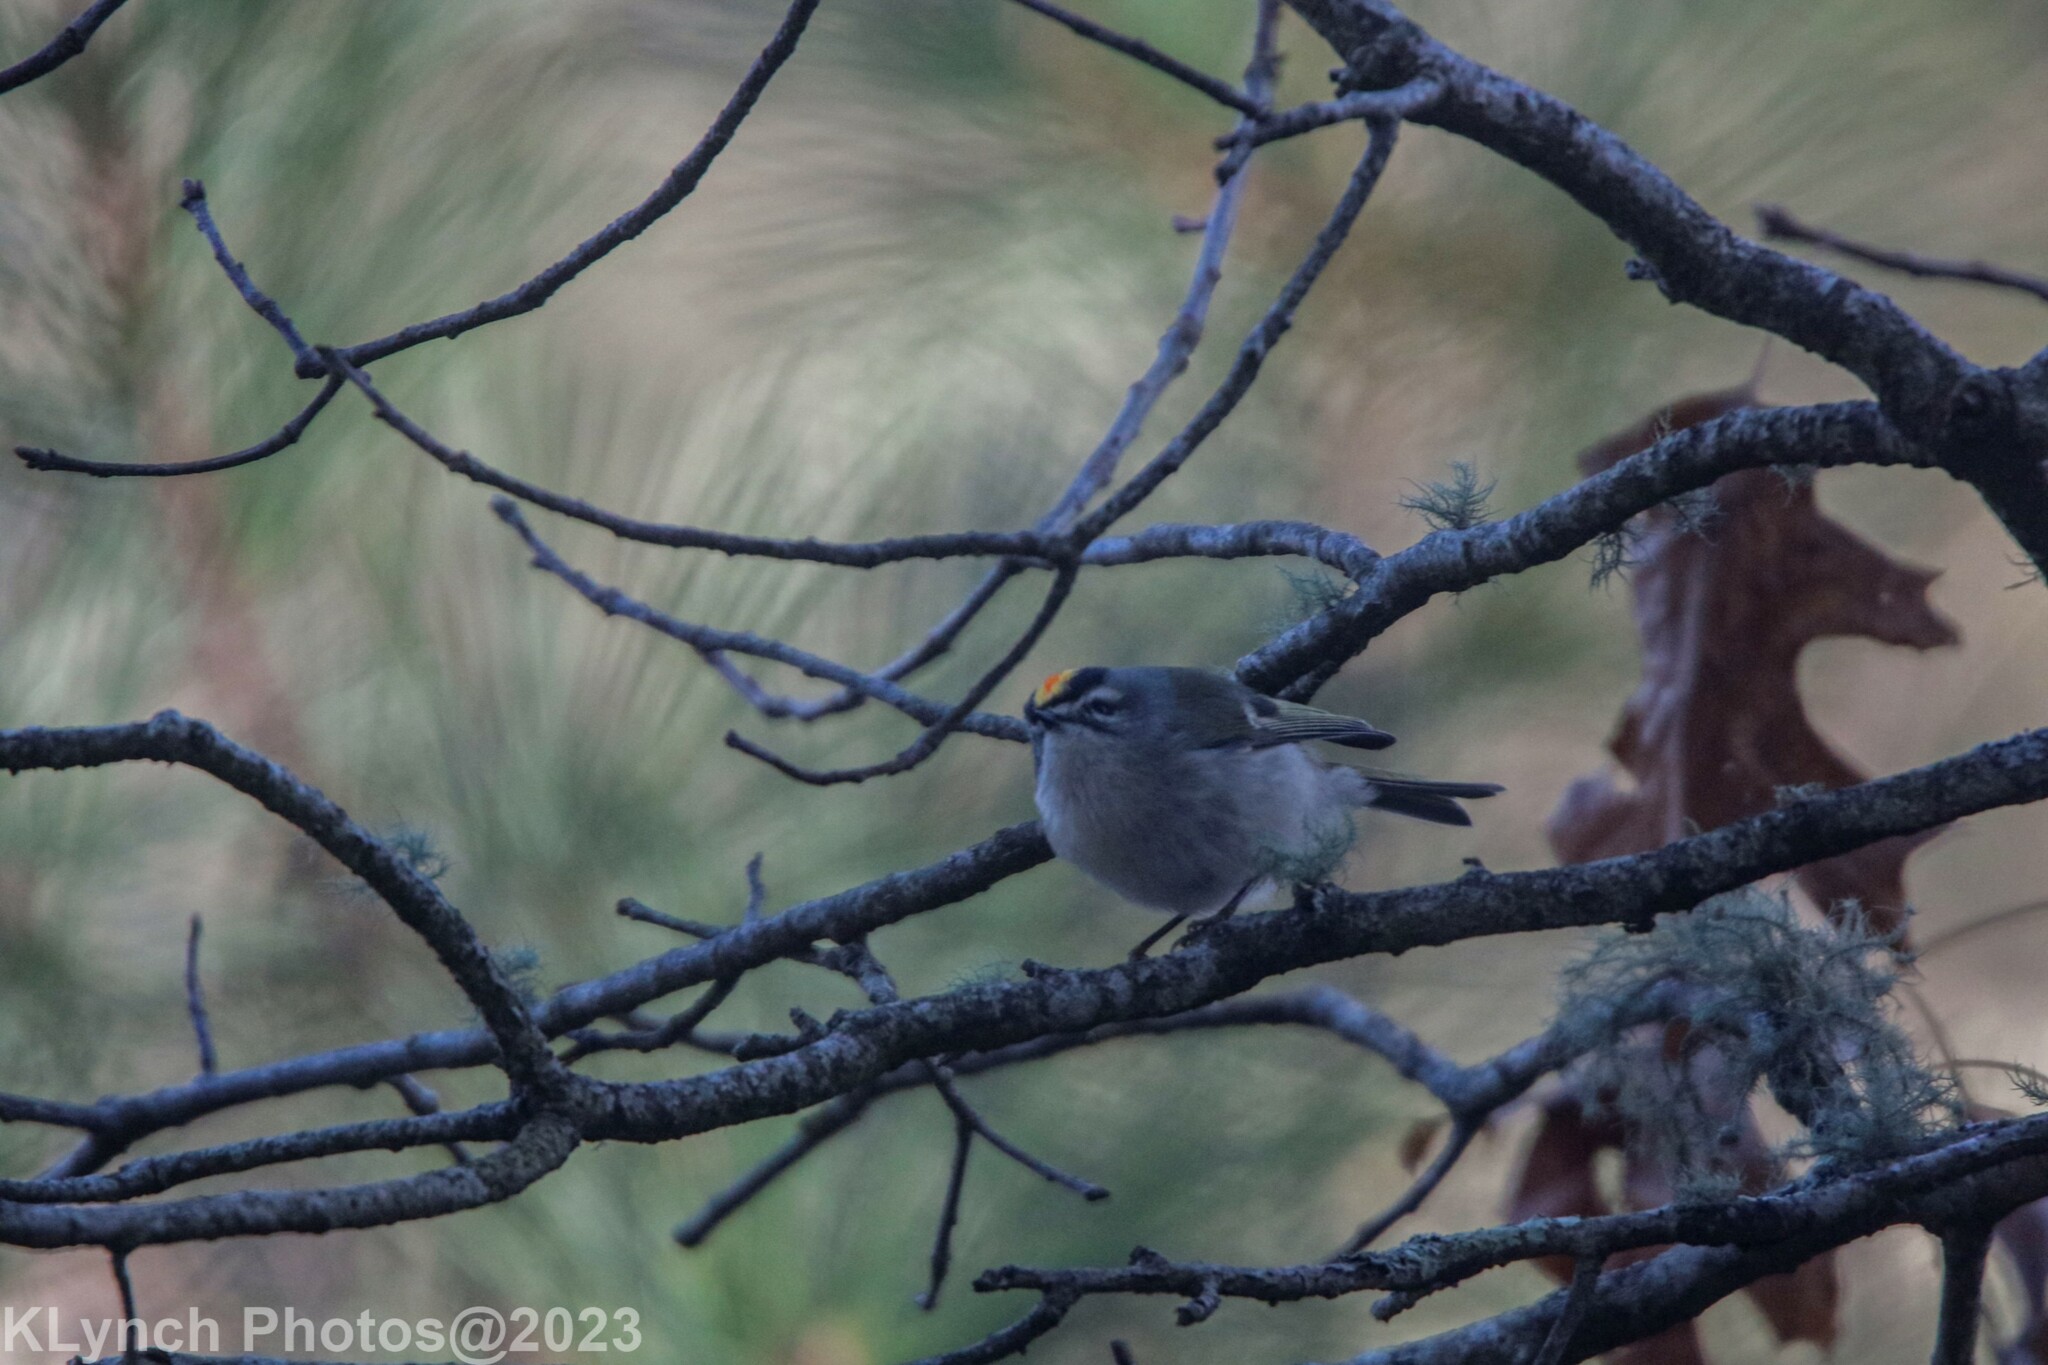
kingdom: Animalia
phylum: Chordata
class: Aves
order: Passeriformes
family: Regulidae
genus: Regulus
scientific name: Regulus satrapa
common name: Golden-crowned kinglet
